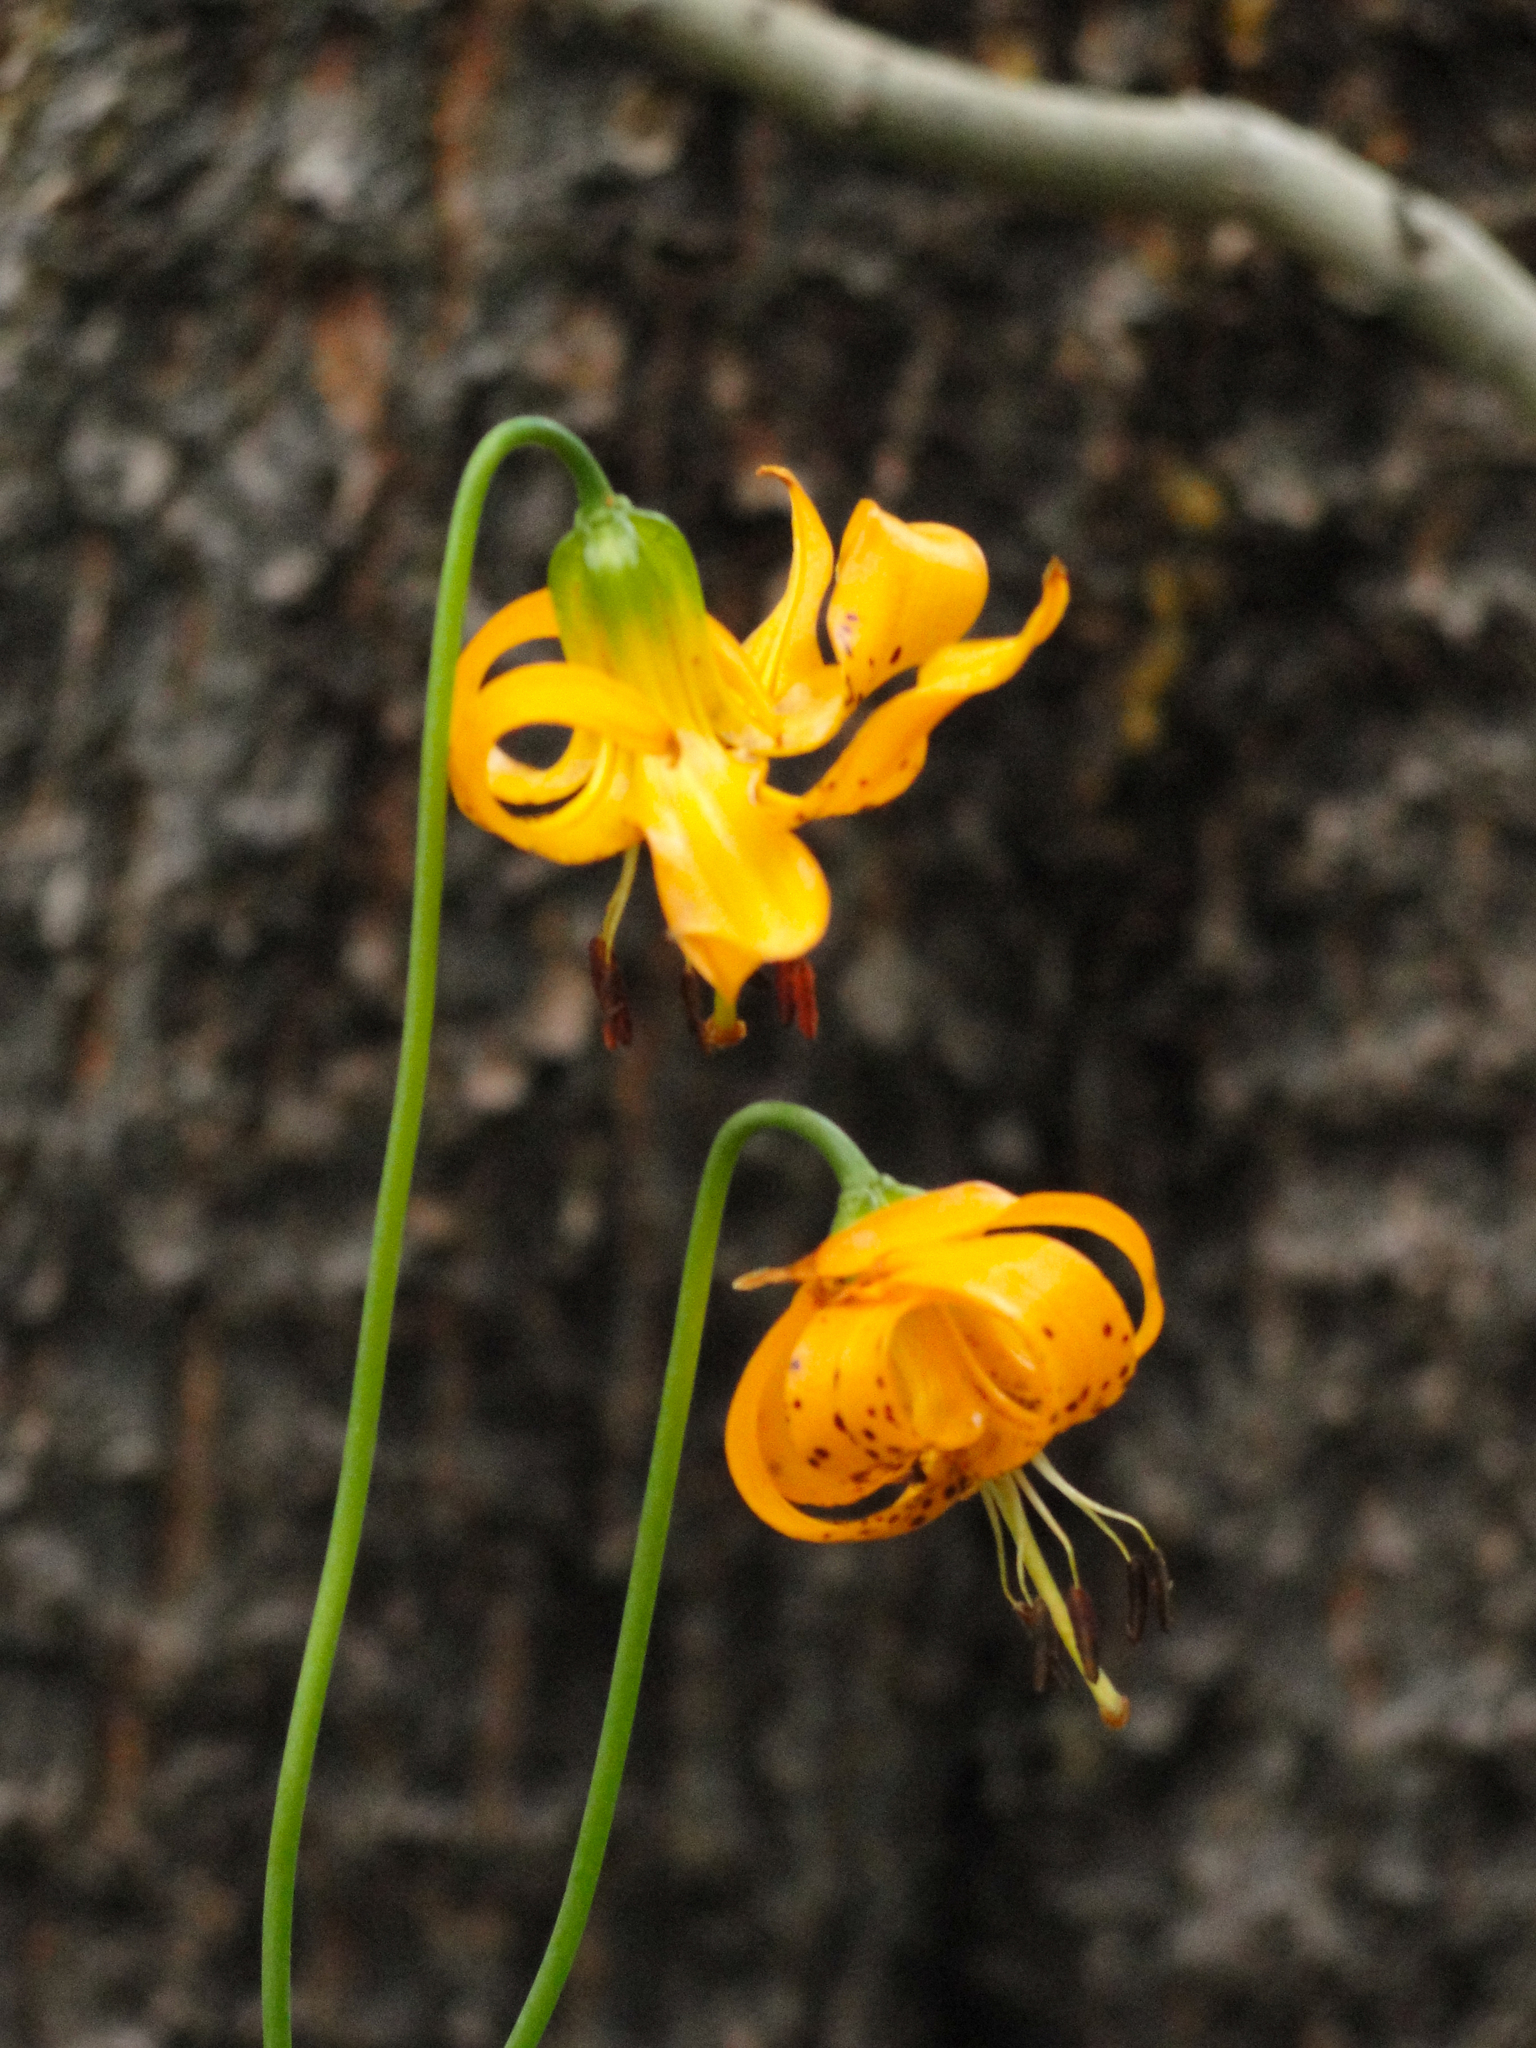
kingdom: Plantae
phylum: Tracheophyta
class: Liliopsida
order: Liliales
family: Liliaceae
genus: Lilium
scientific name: Lilium kelleyanum
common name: Kelley's lily
